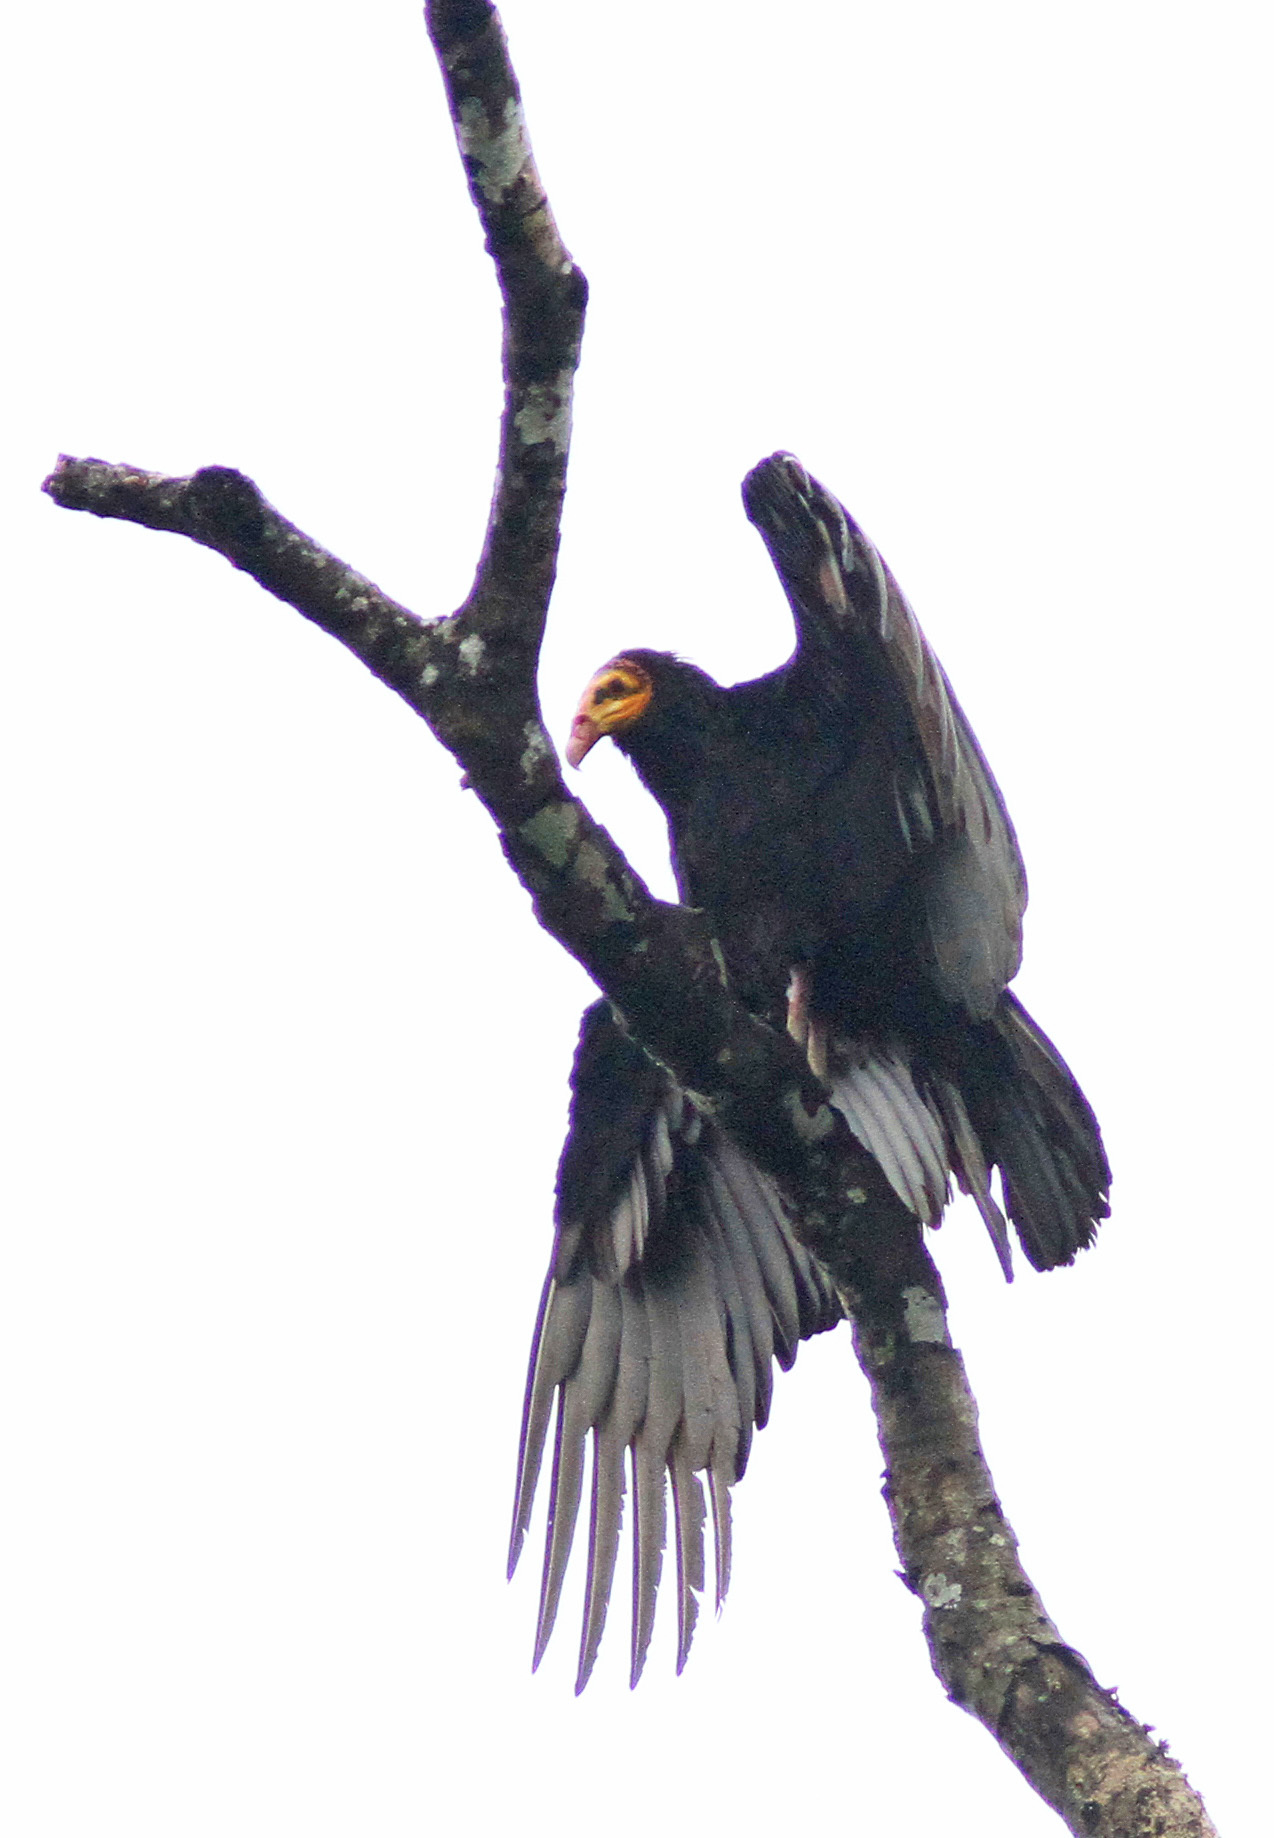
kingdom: Animalia
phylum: Chordata
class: Aves
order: Accipitriformes
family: Cathartidae
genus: Cathartes
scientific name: Cathartes melambrotus
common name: Greater yellow-headed vulture
